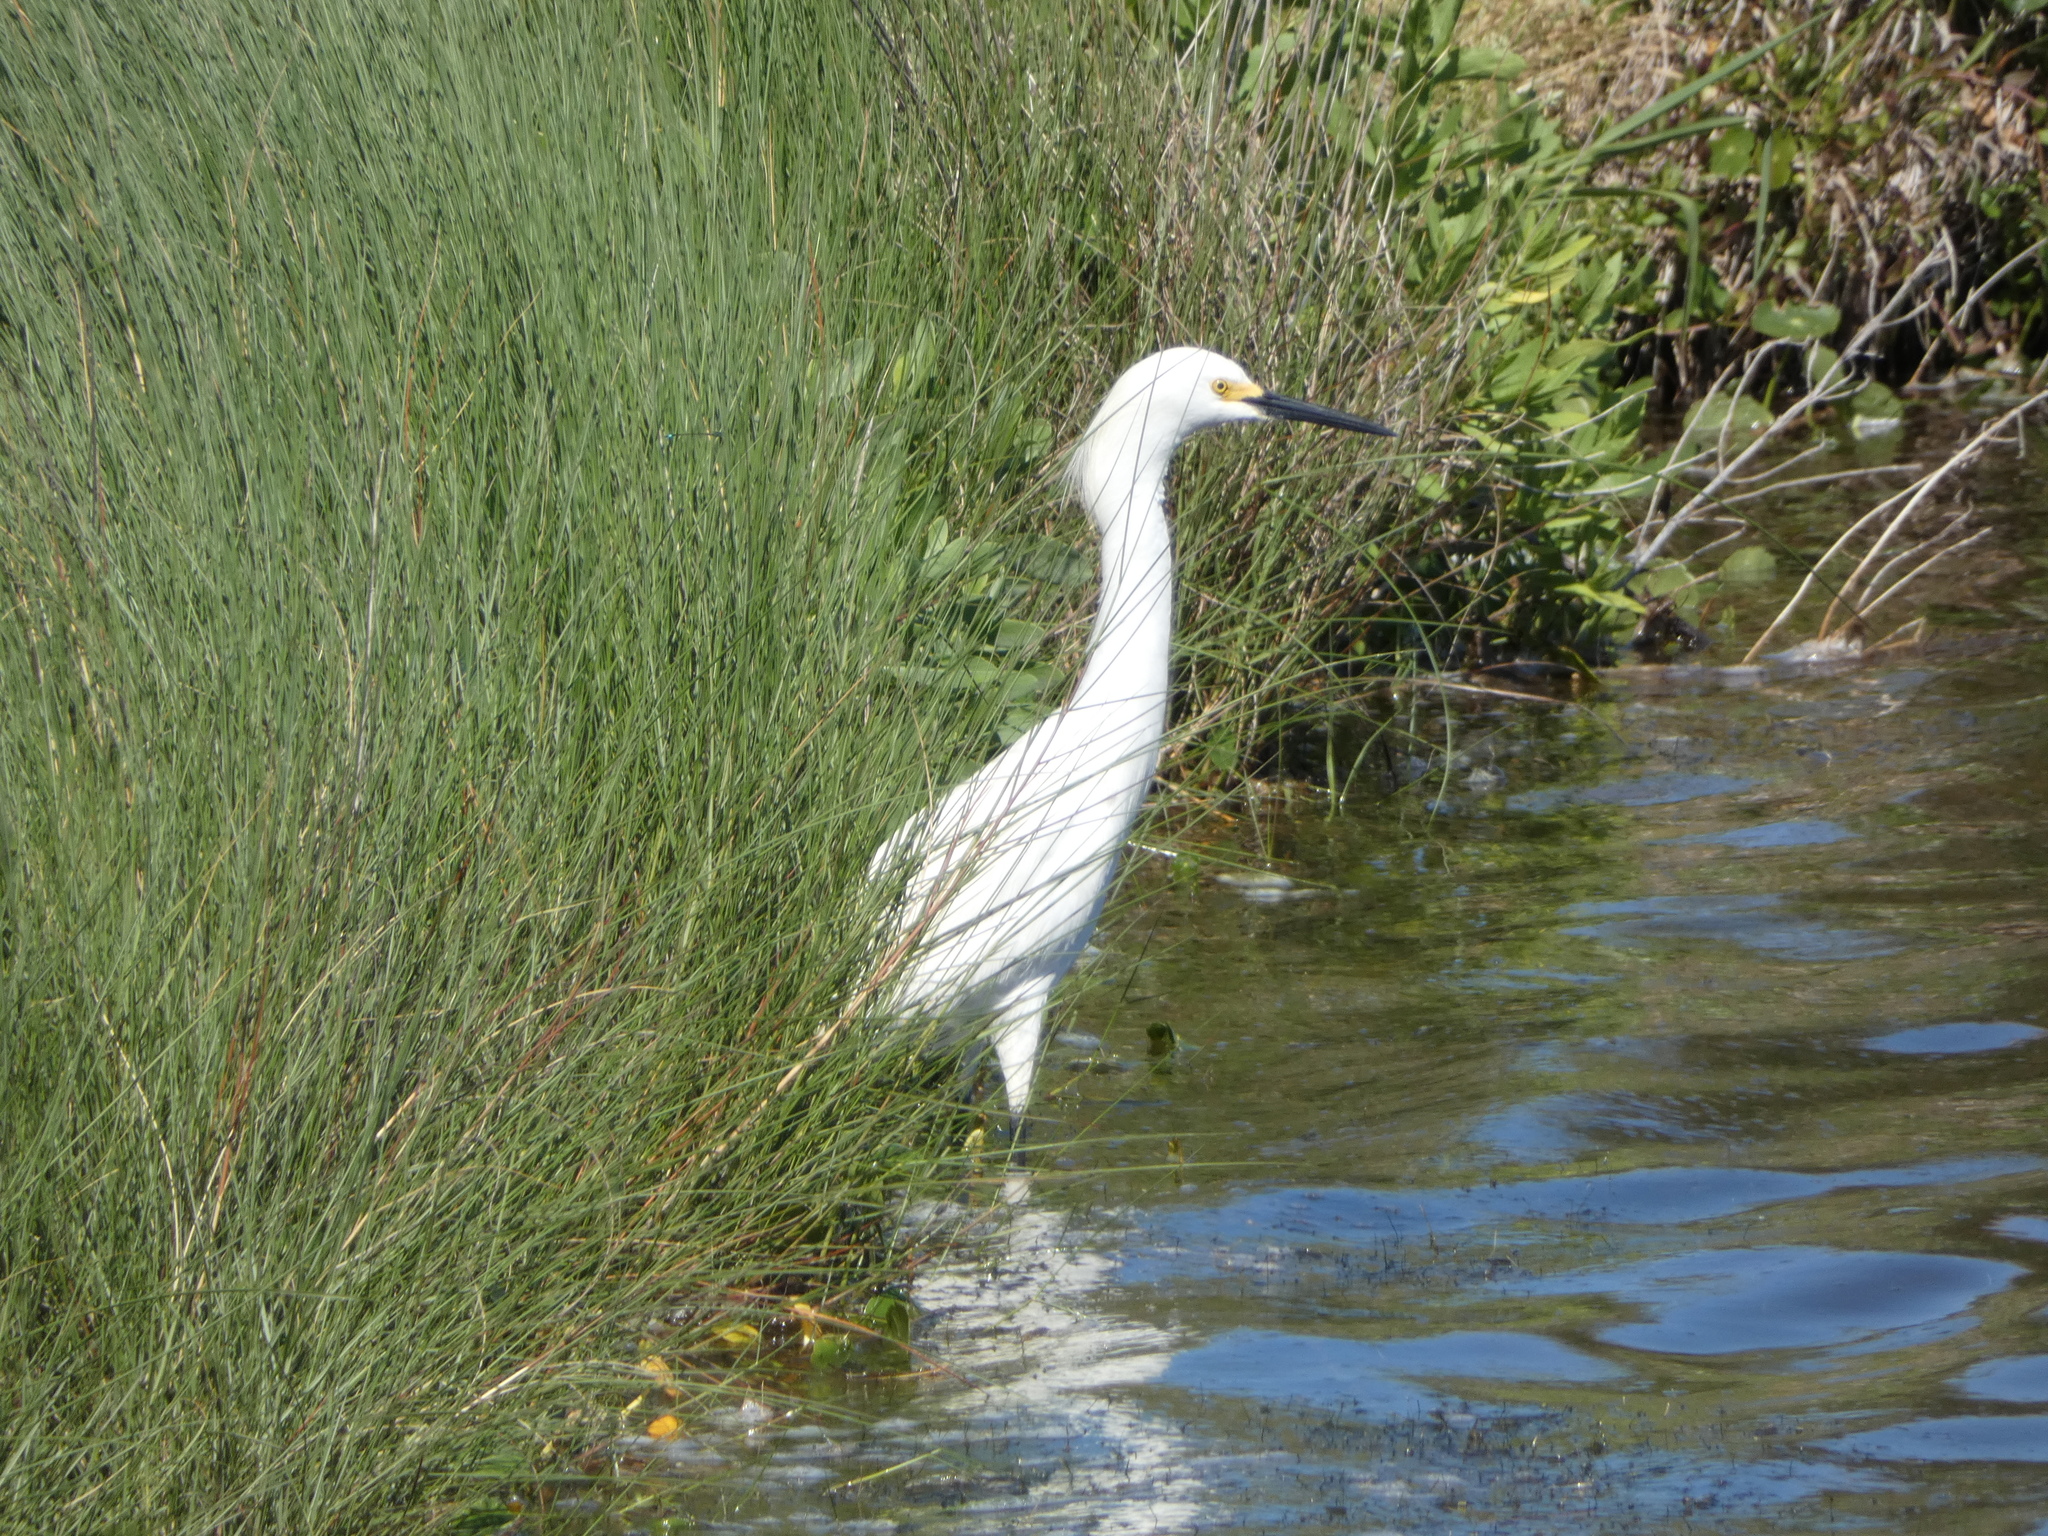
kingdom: Animalia
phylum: Chordata
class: Aves
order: Pelecaniformes
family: Ardeidae
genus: Egretta
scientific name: Egretta thula
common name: Snowy egret
